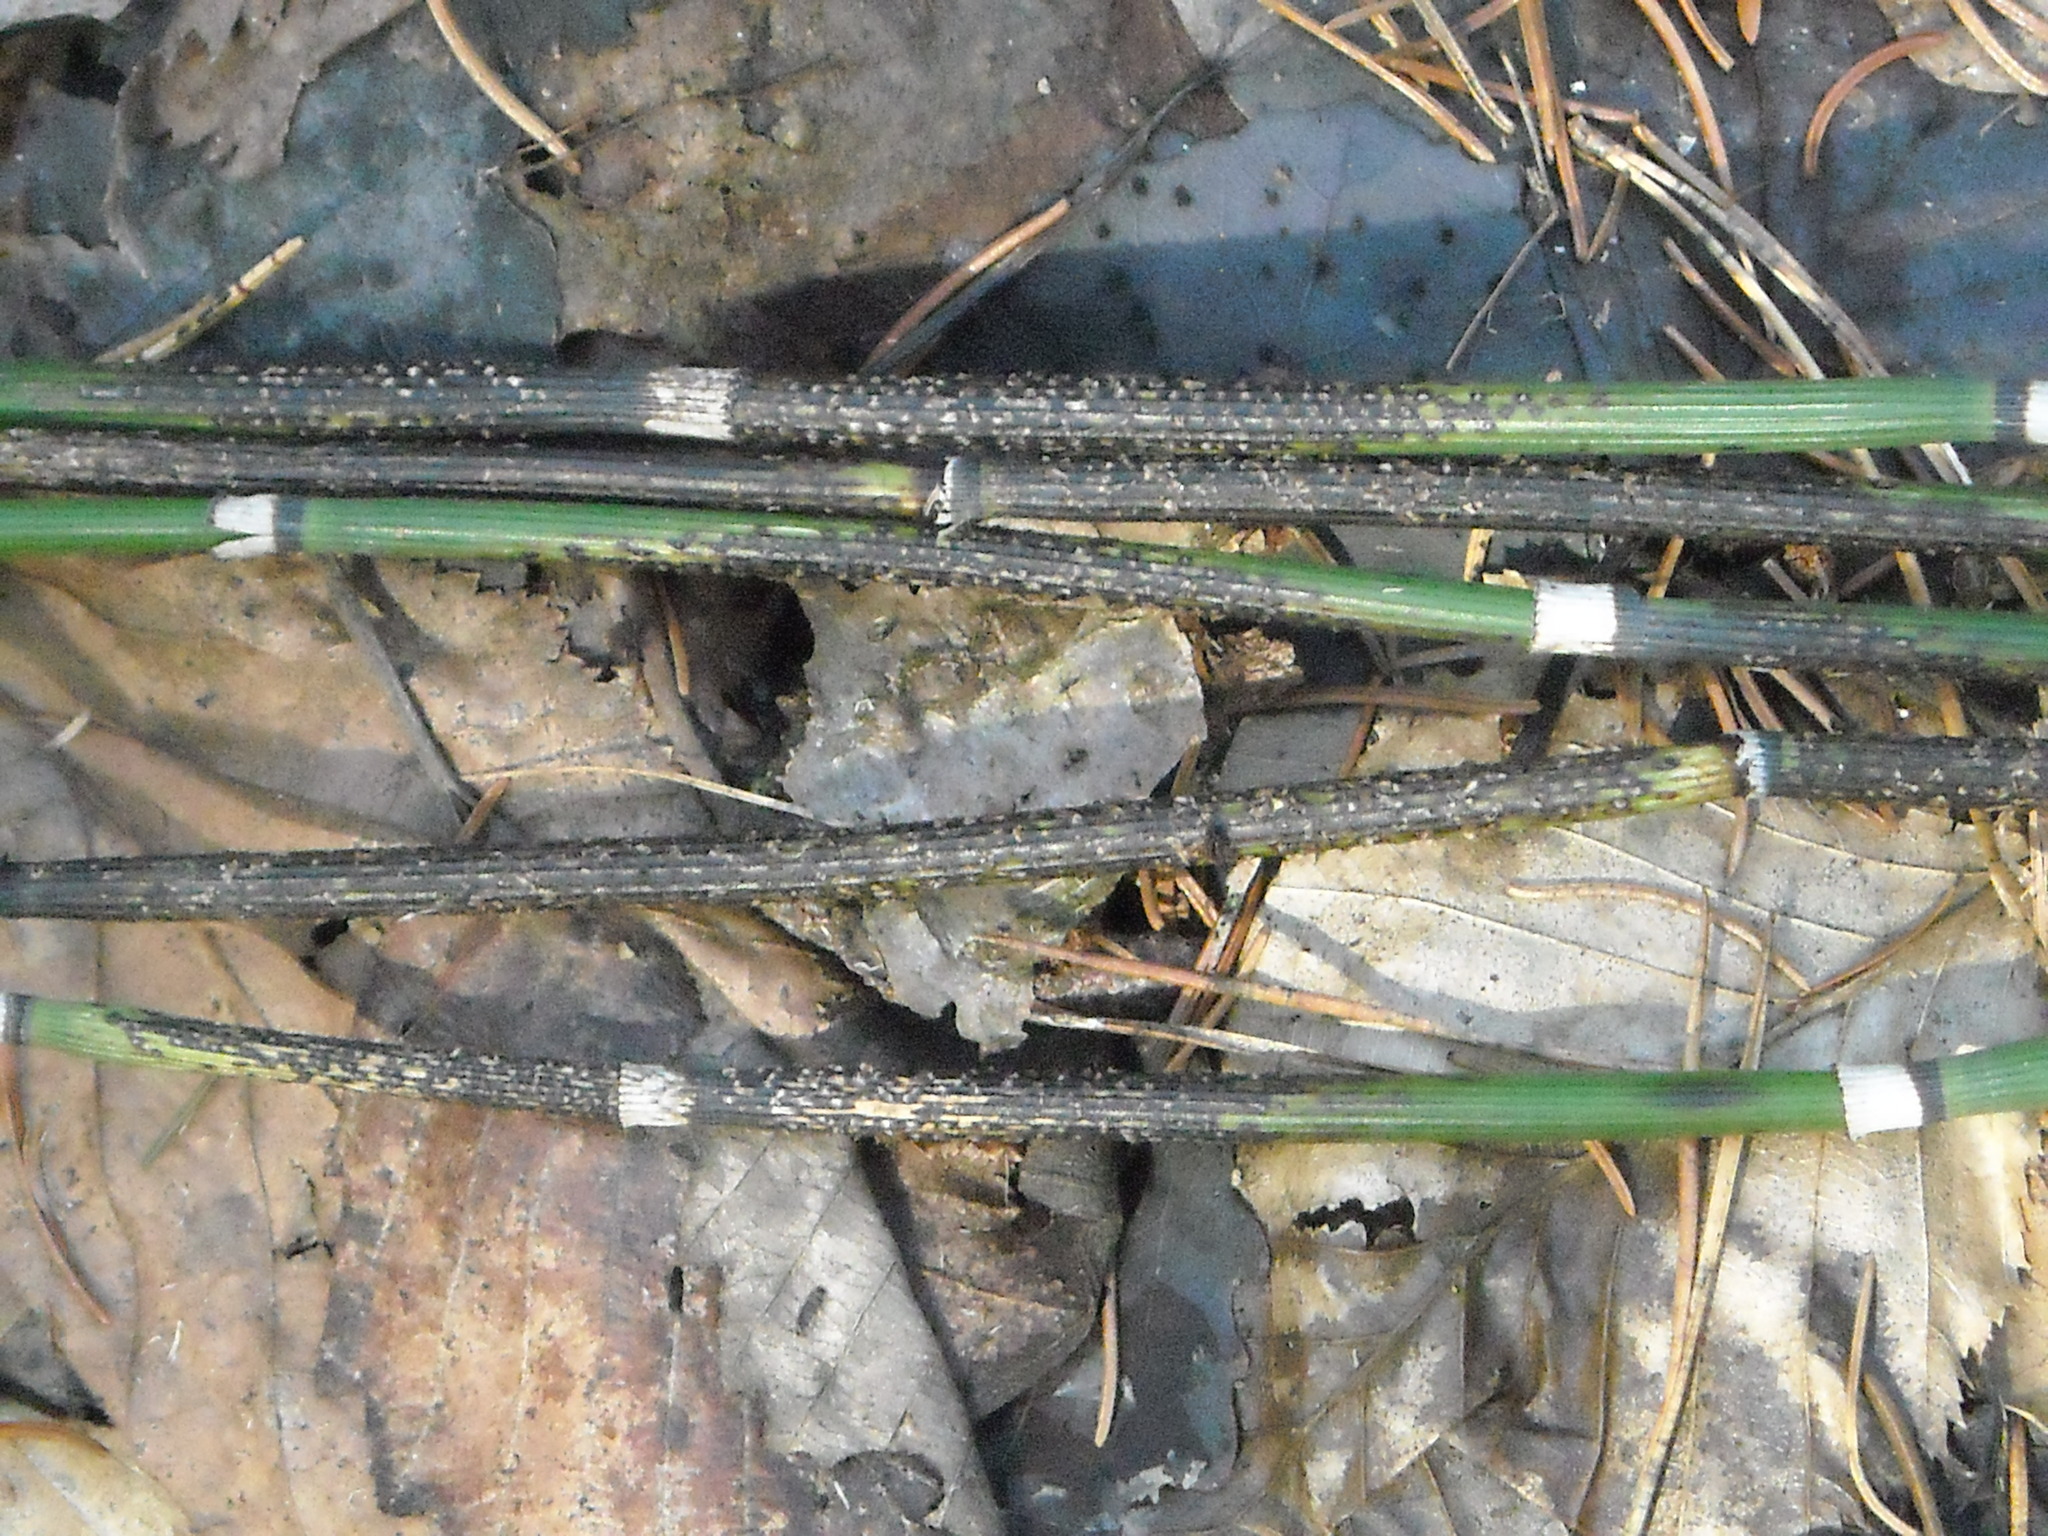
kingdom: Fungi
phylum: Ascomycota
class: Leotiomycetes
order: Helotiales
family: Helotiaceae
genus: Stamnaria
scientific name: Stamnaria americana
